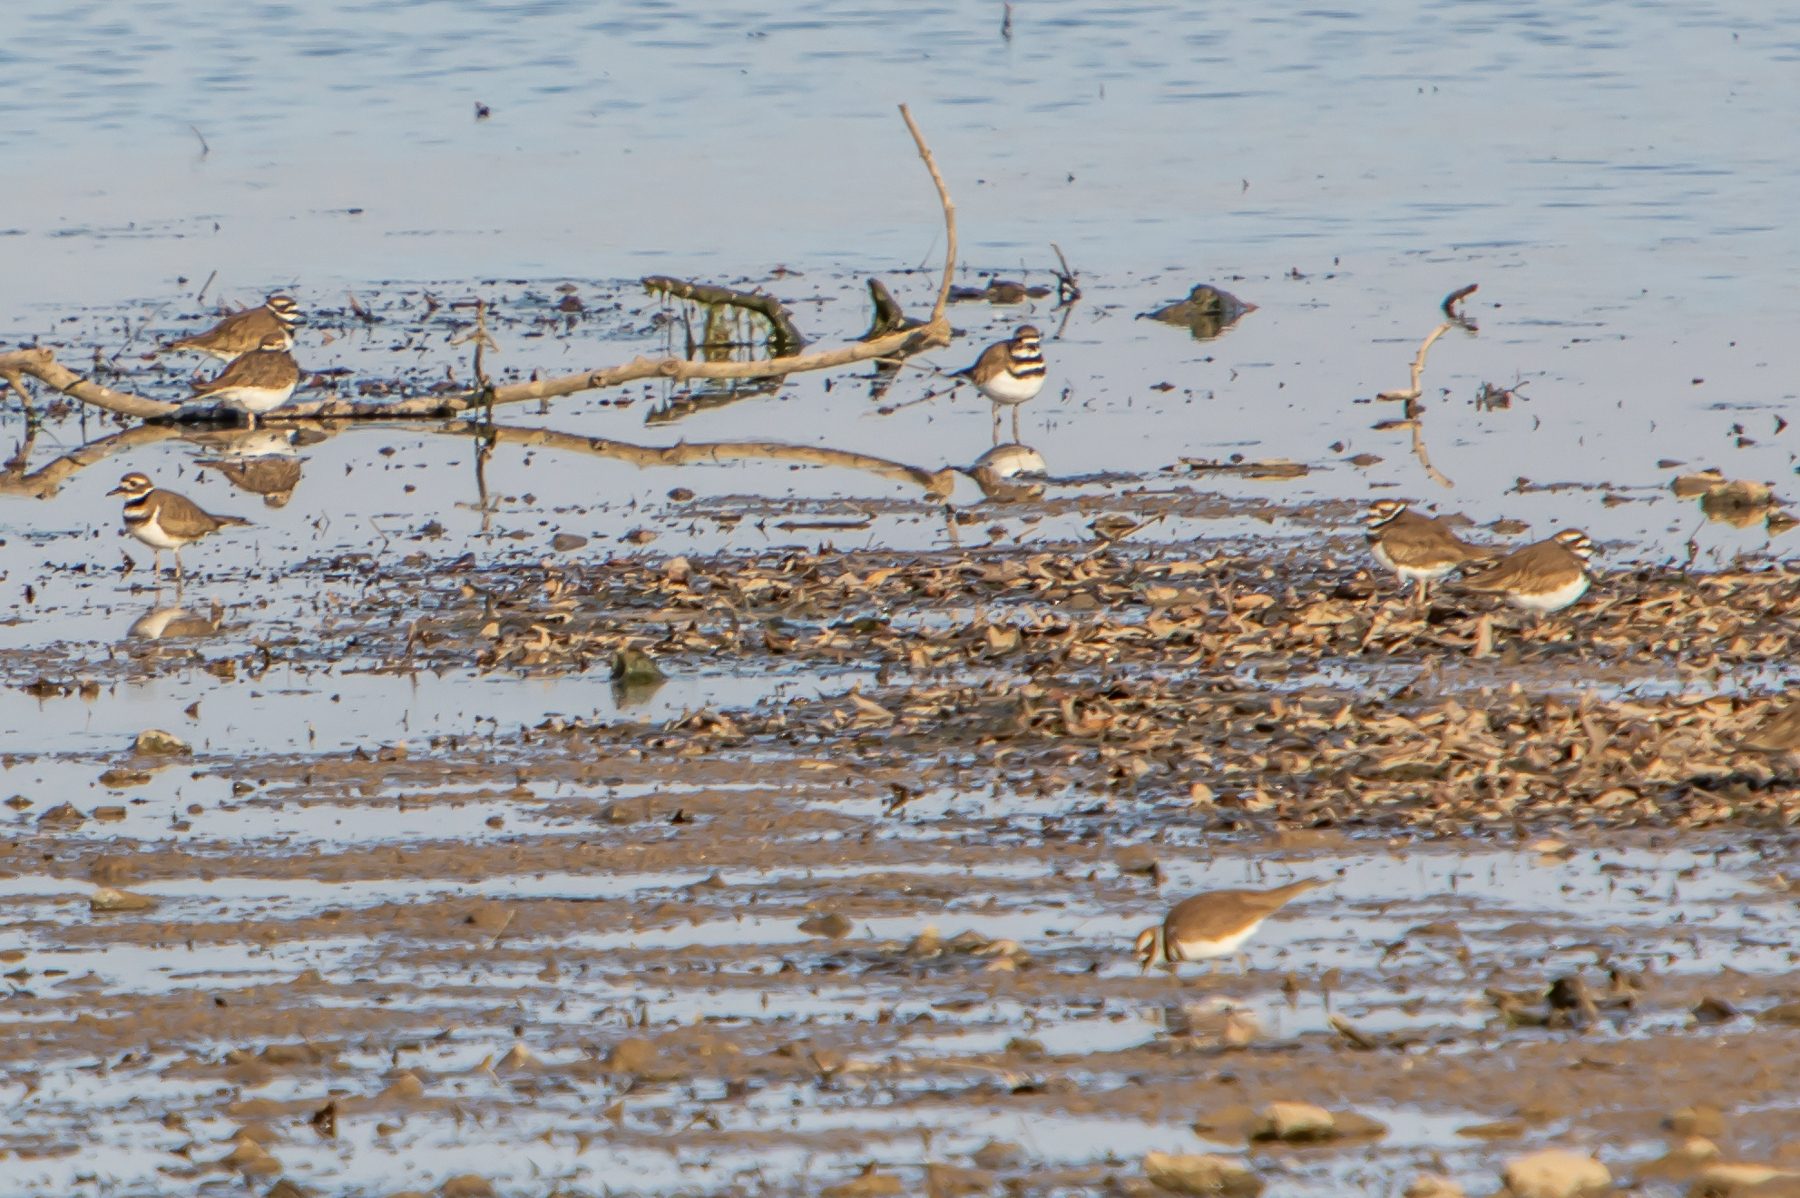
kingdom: Animalia
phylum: Chordata
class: Aves
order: Charadriiformes
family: Charadriidae
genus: Charadrius
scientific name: Charadrius vociferus
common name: Killdeer
